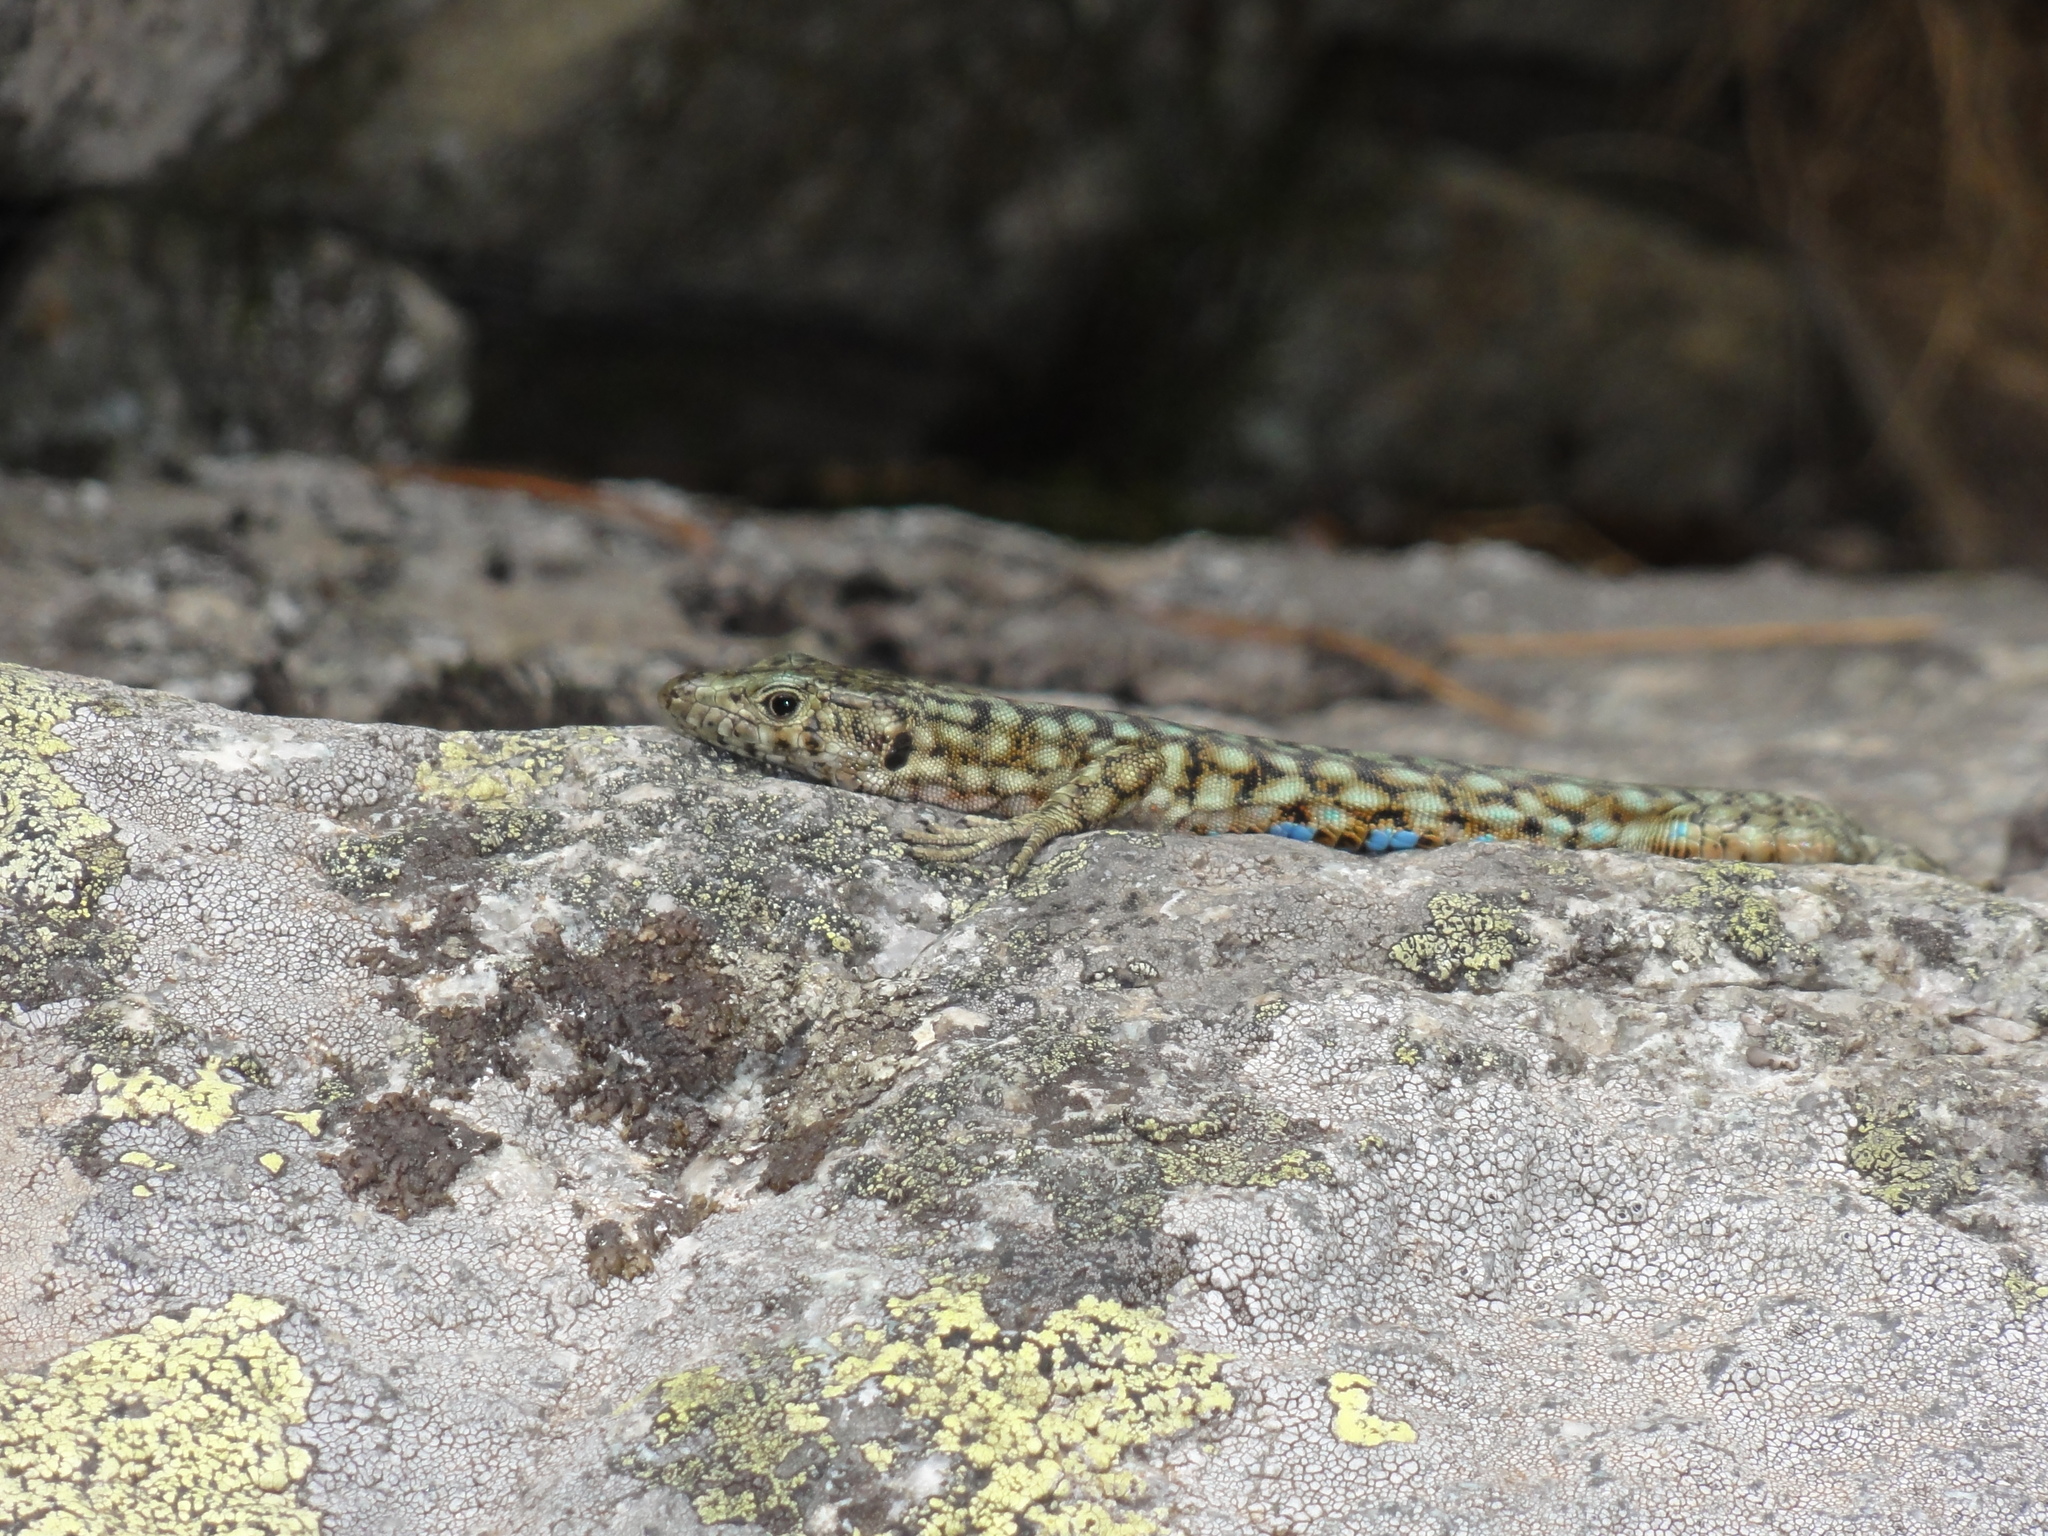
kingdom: Animalia
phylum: Chordata
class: Squamata
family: Lacertidae
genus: Archaeolacerta
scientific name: Archaeolacerta bedriagae
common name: Bedriaga's rock lizard
